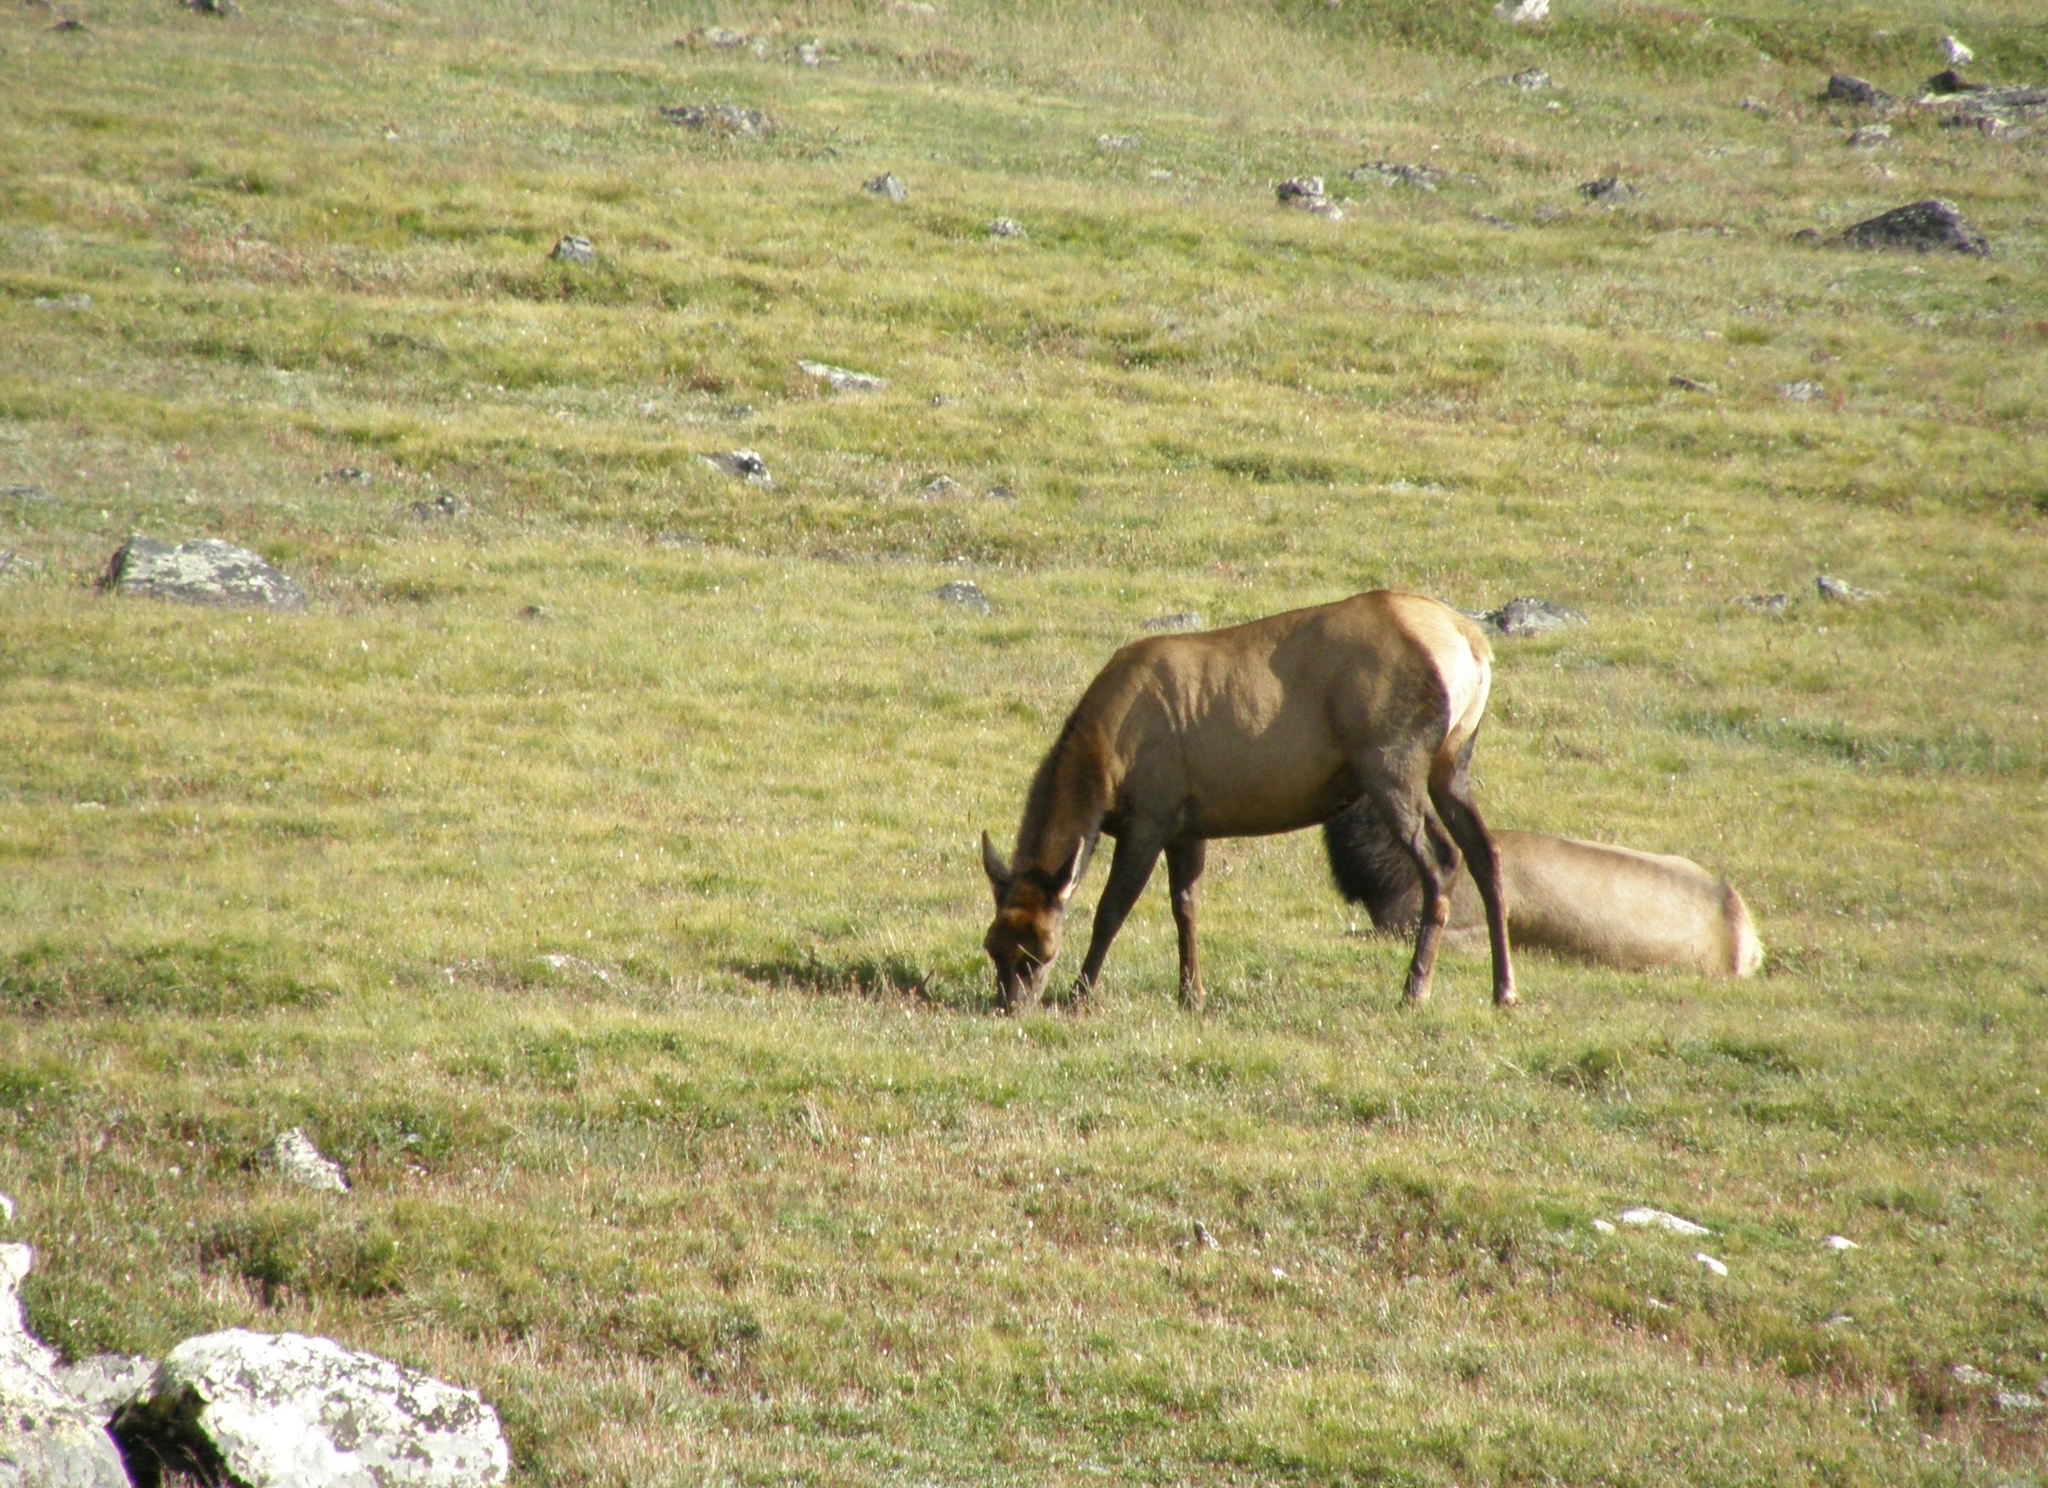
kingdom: Animalia
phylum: Chordata
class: Mammalia
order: Artiodactyla
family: Cervidae
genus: Cervus
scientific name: Cervus elaphus
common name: Red deer
